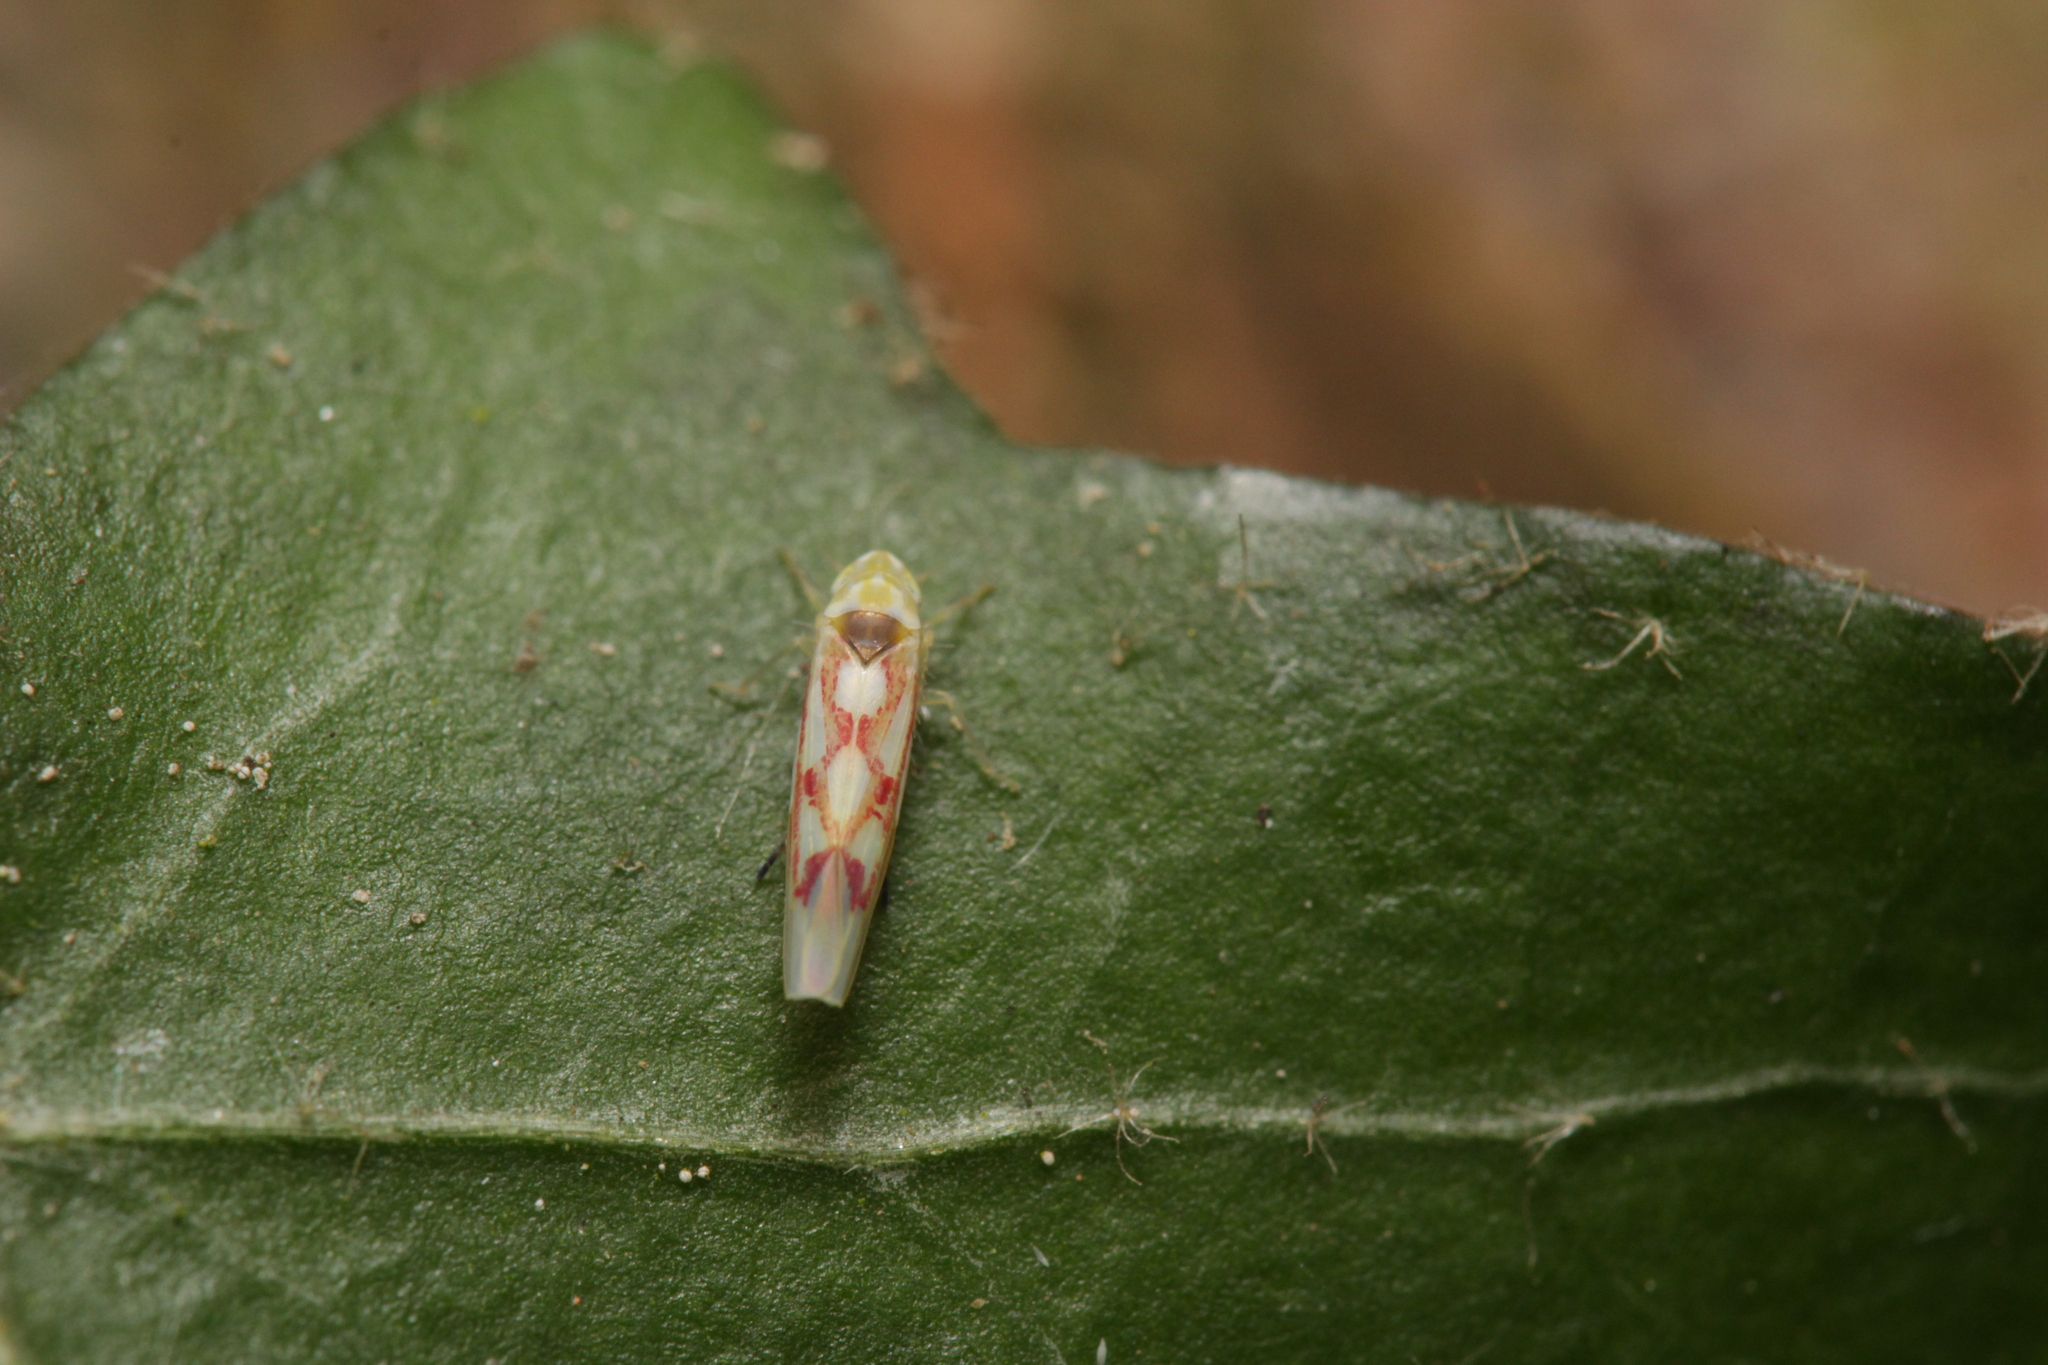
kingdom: Animalia
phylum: Arthropoda
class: Insecta
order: Hemiptera
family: Cicadellidae
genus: Zygina
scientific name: Zygina flammigera
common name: Leafhopper
